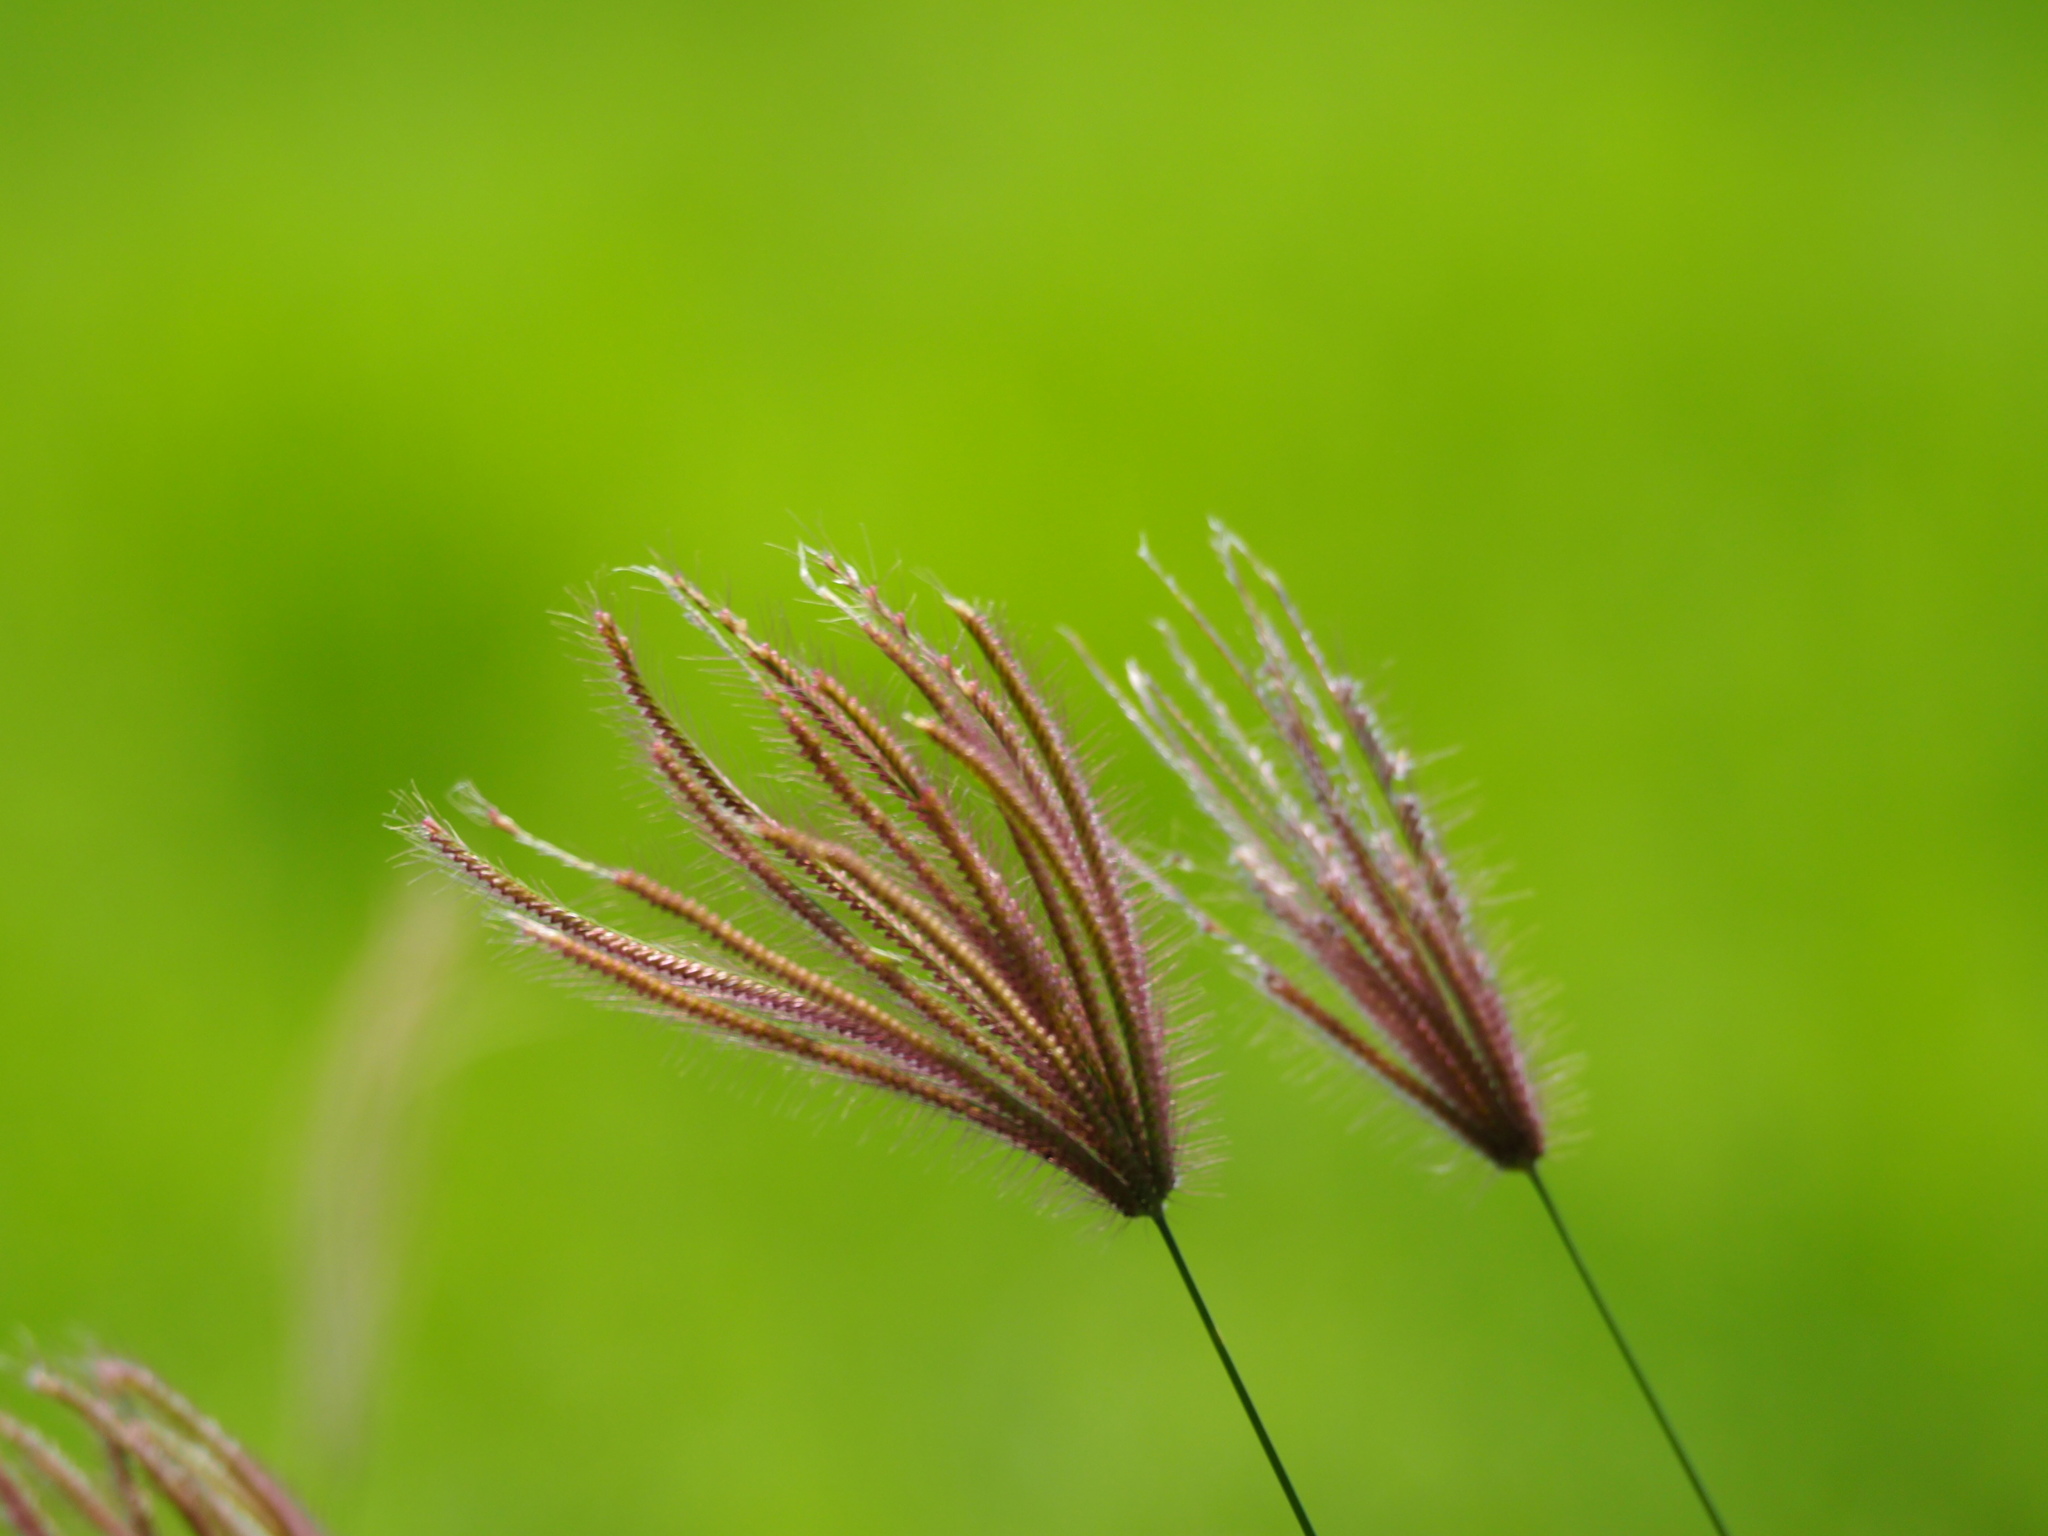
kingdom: Plantae
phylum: Tracheophyta
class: Liliopsida
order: Poales
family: Poaceae
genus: Chloris
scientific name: Chloris barbata
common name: Swollen fingergrass
